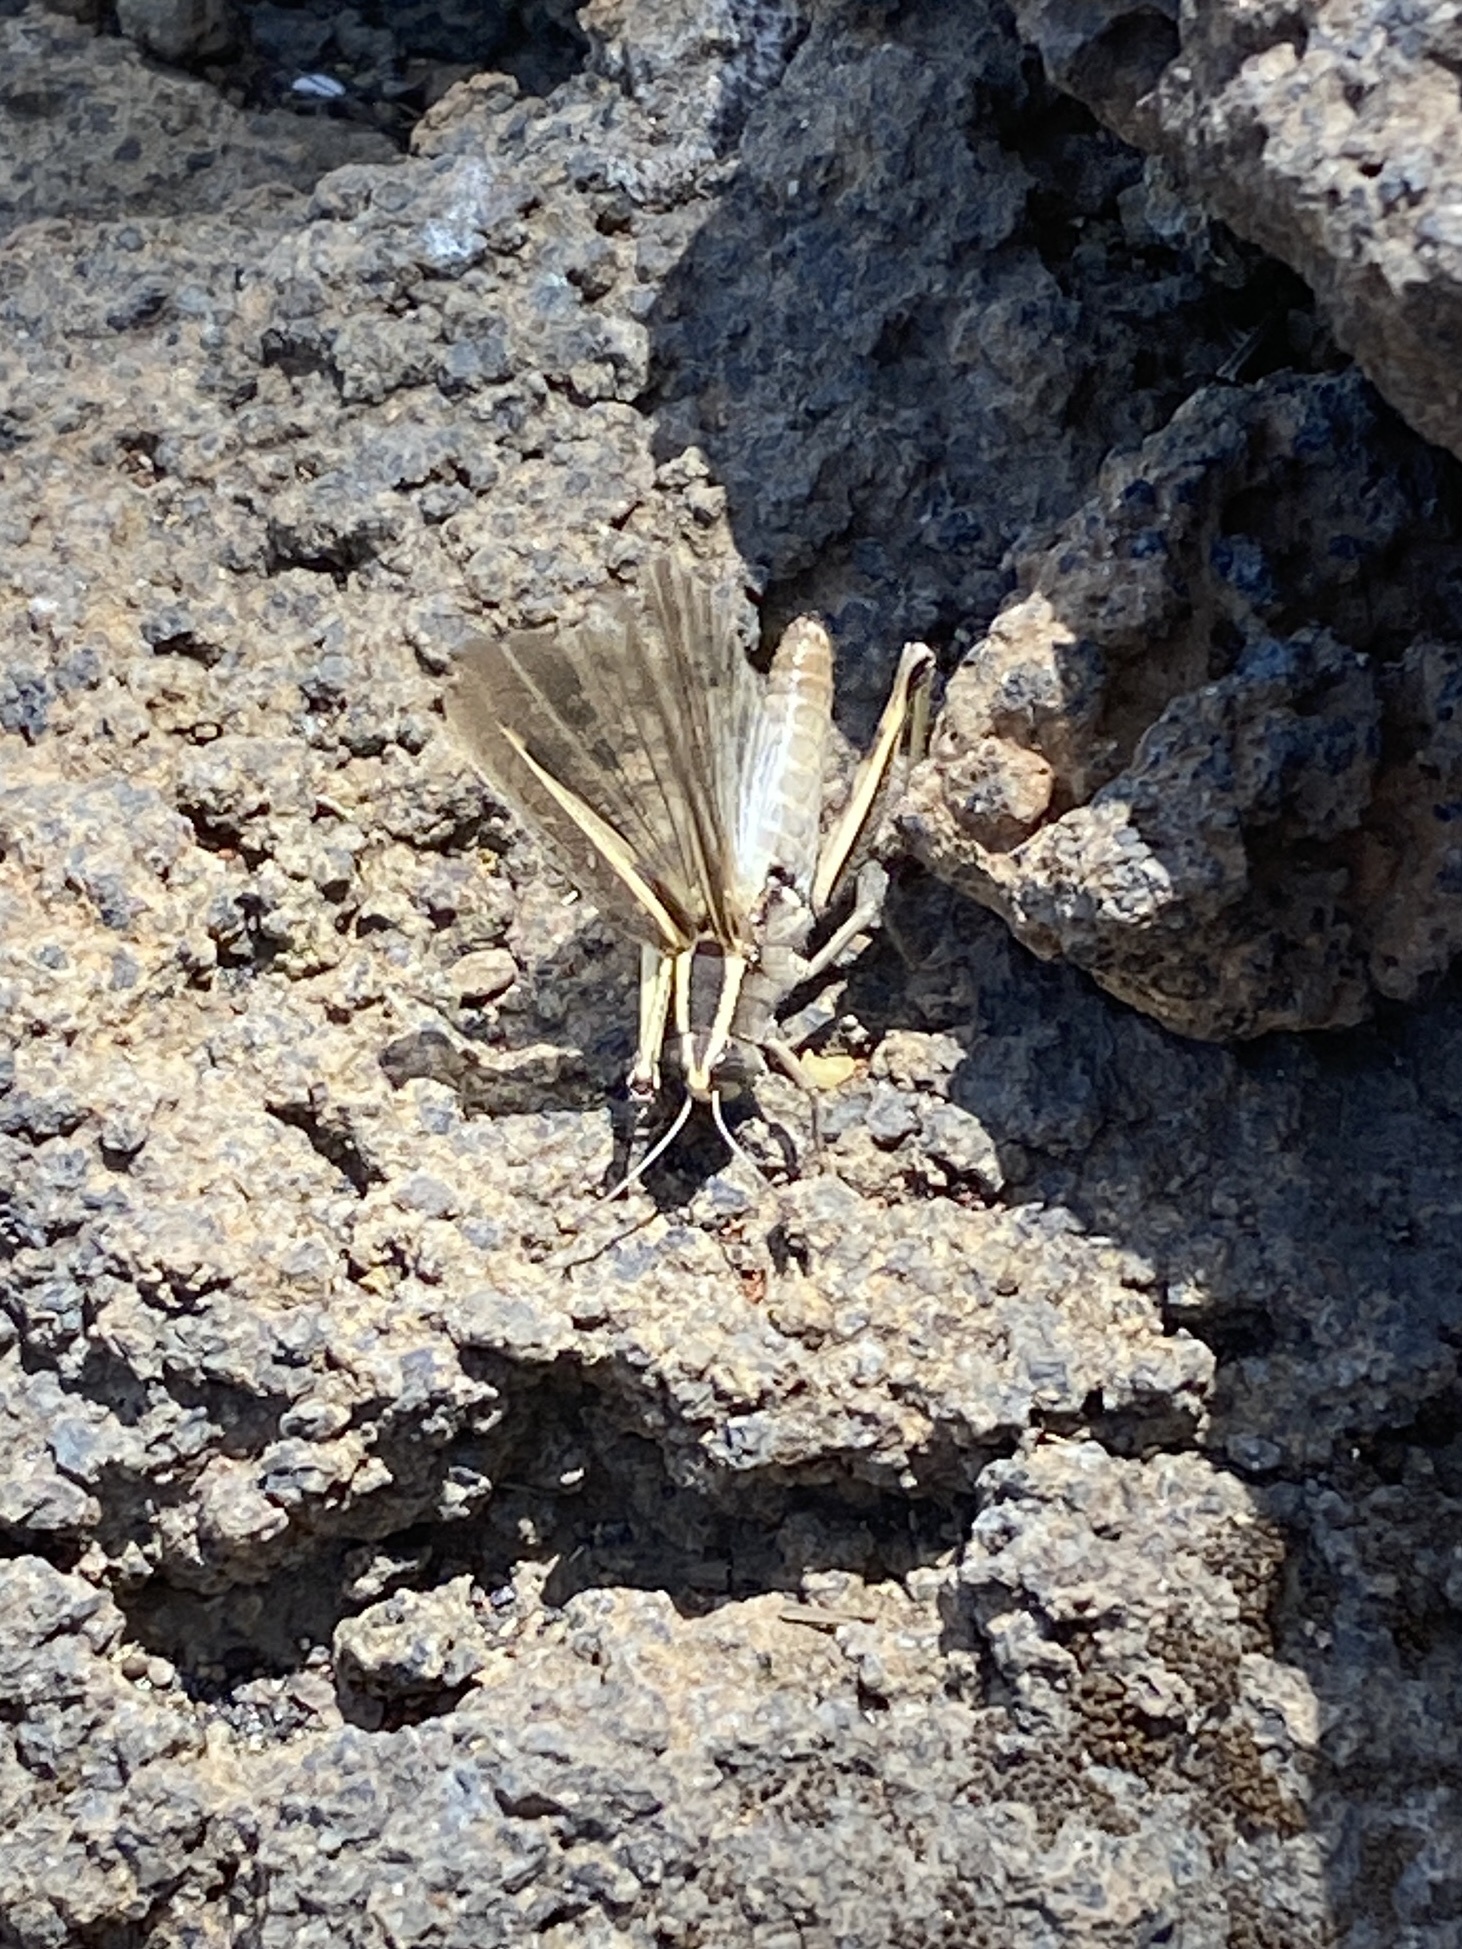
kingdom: Animalia
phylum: Arthropoda
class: Insecta
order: Orthoptera
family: Acrididae
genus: Calliptamus
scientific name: Calliptamus plebeius
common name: Canarian pincer grasshopper
